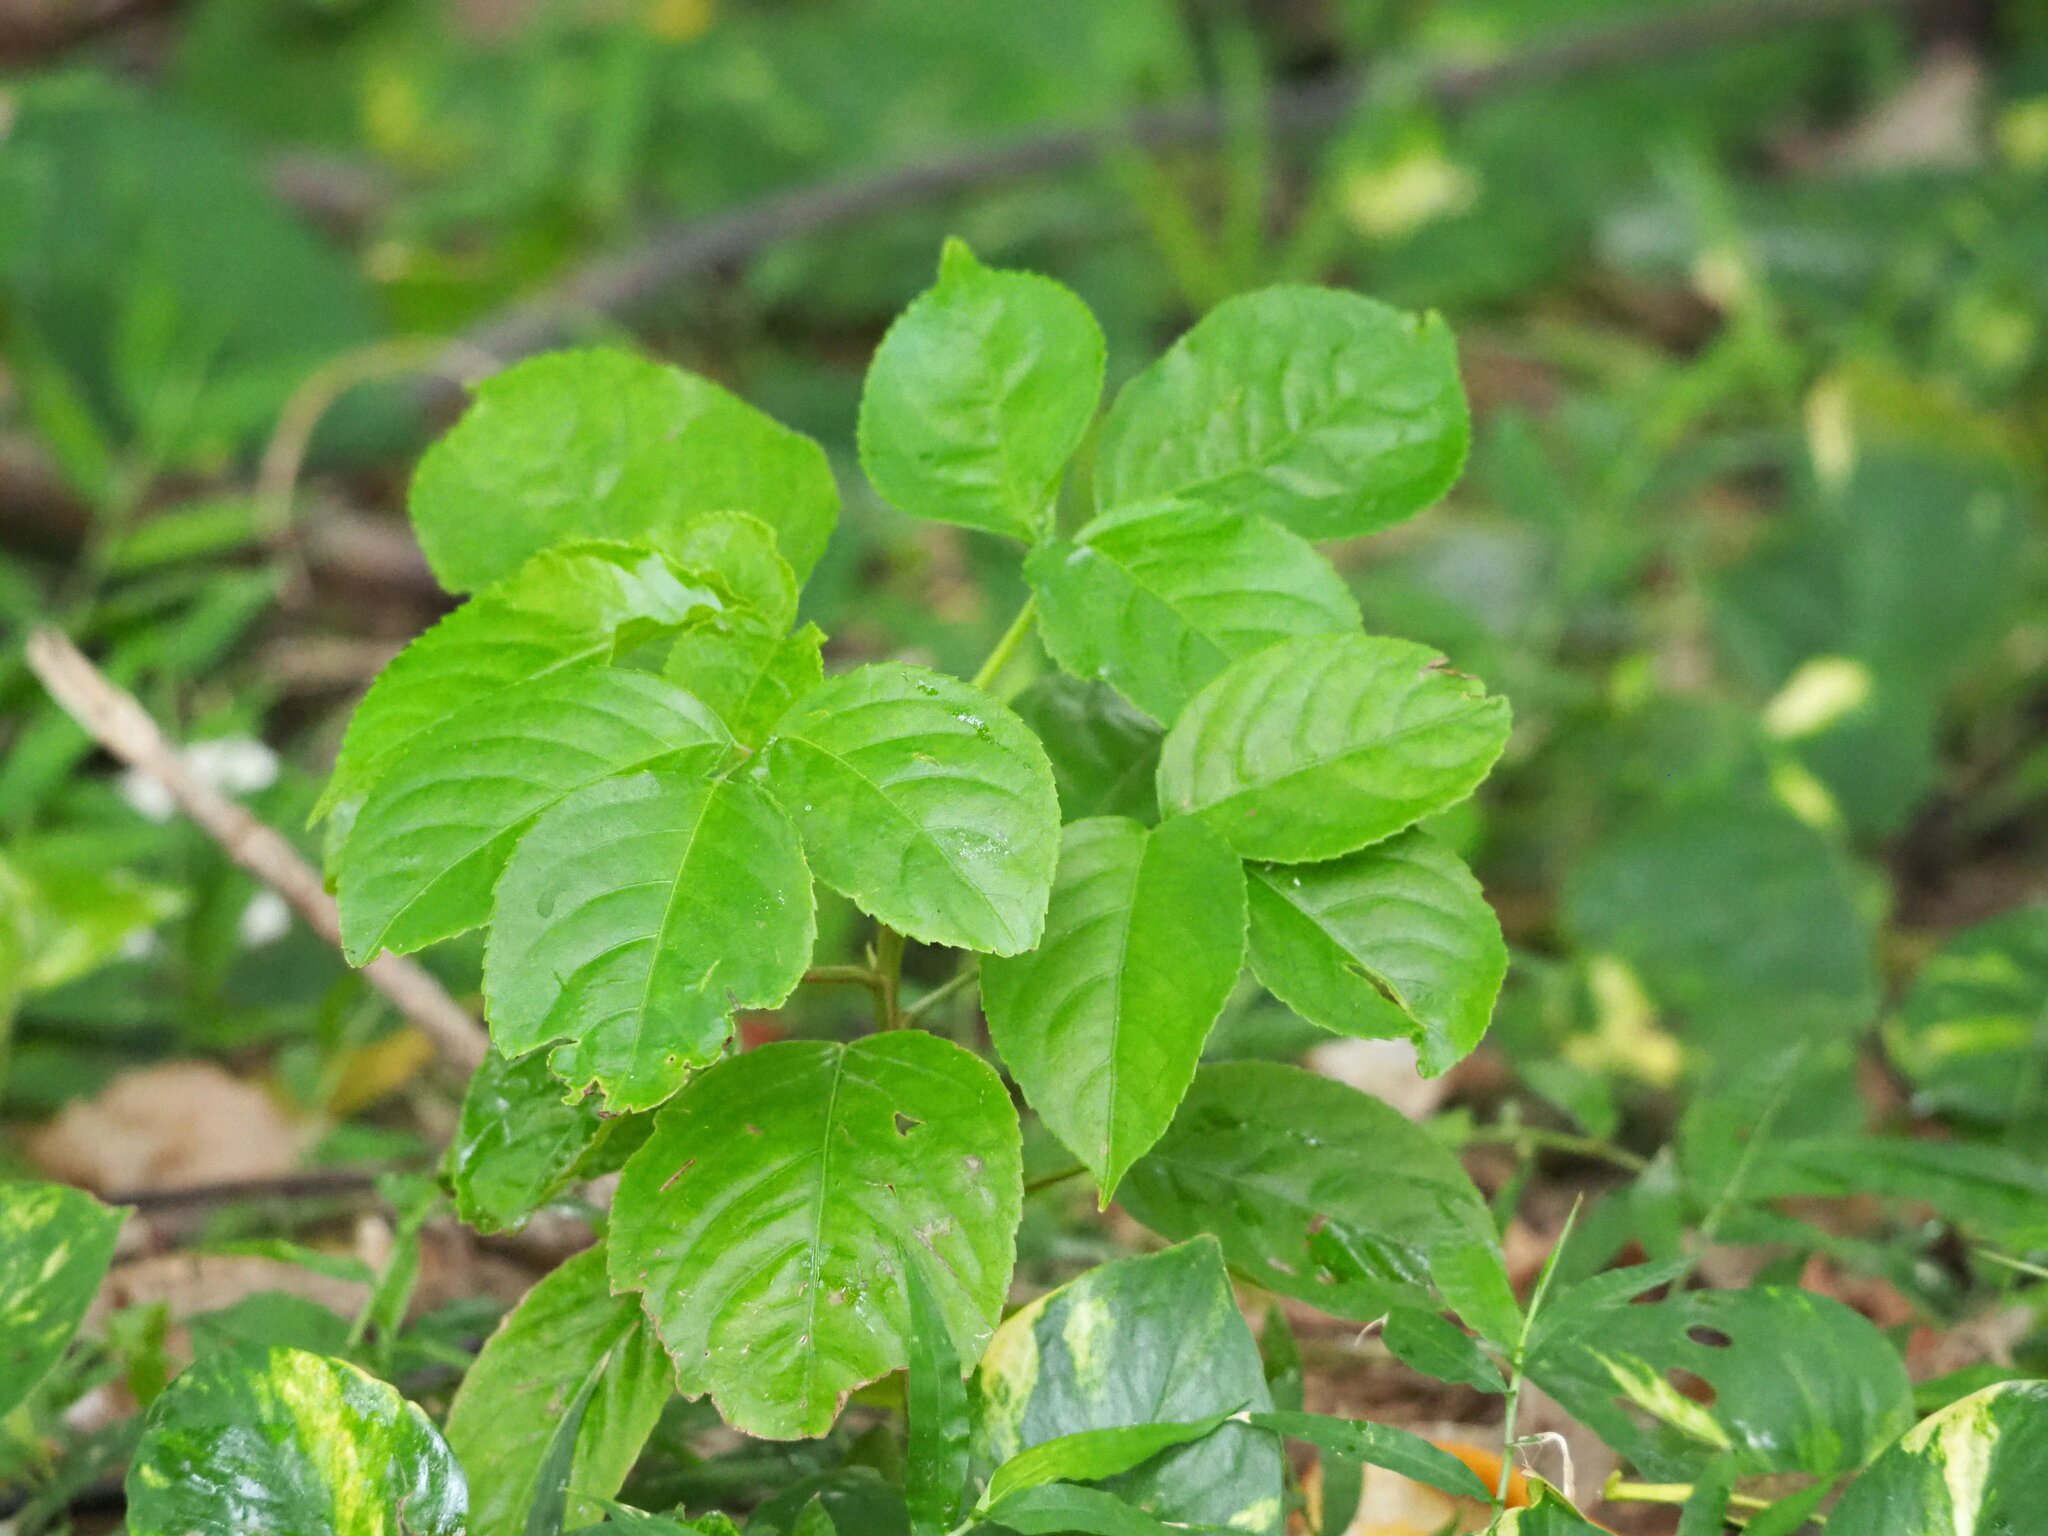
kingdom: Plantae
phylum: Tracheophyta
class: Magnoliopsida
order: Malpighiales
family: Phyllanthaceae
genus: Bischofia
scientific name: Bischofia javanica
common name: Javanese bishopwood
